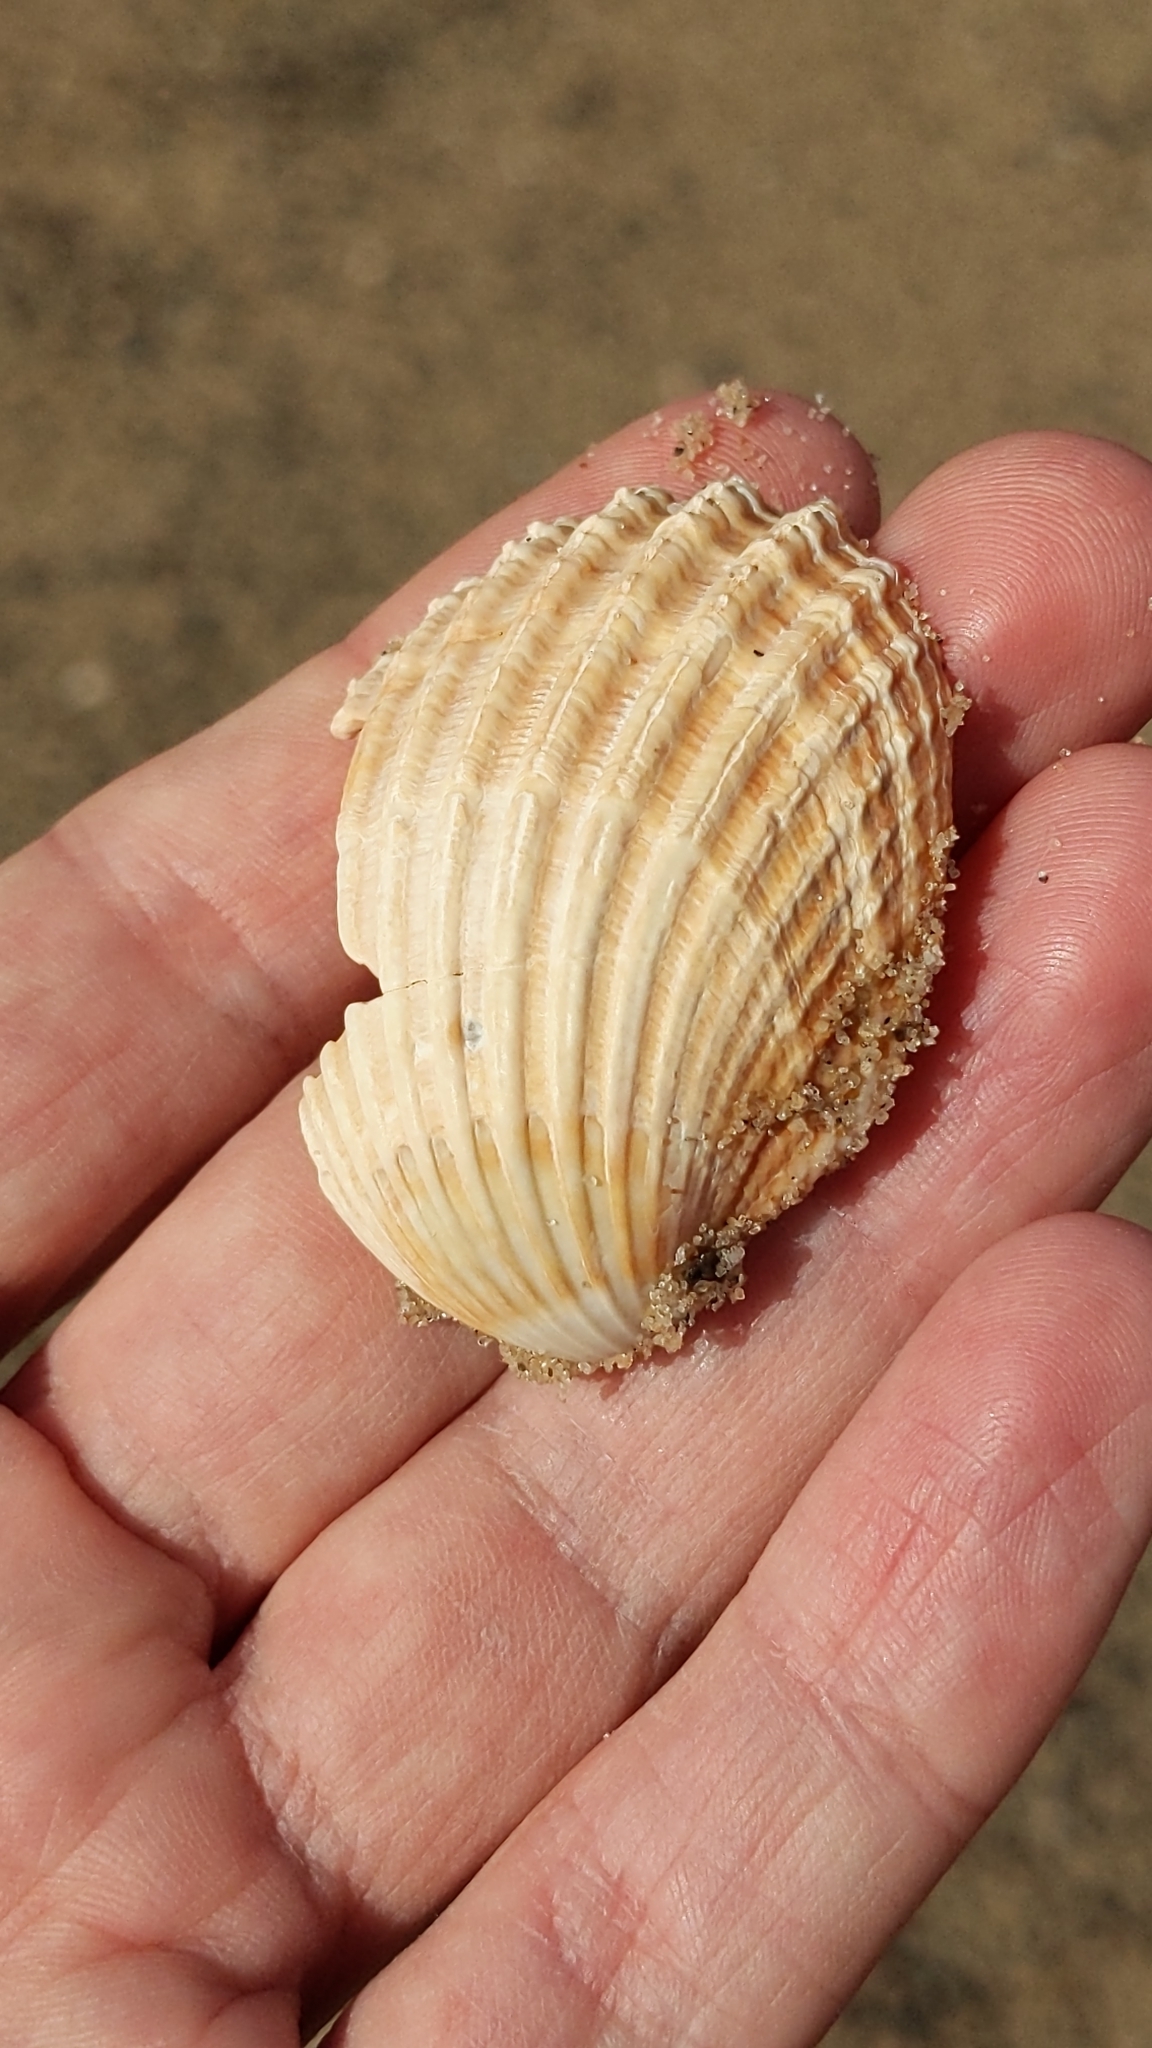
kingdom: Animalia
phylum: Mollusca
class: Bivalvia
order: Cardiida
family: Cardiidae
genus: Acanthocardia
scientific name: Acanthocardia echinata
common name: Prickly cockle
